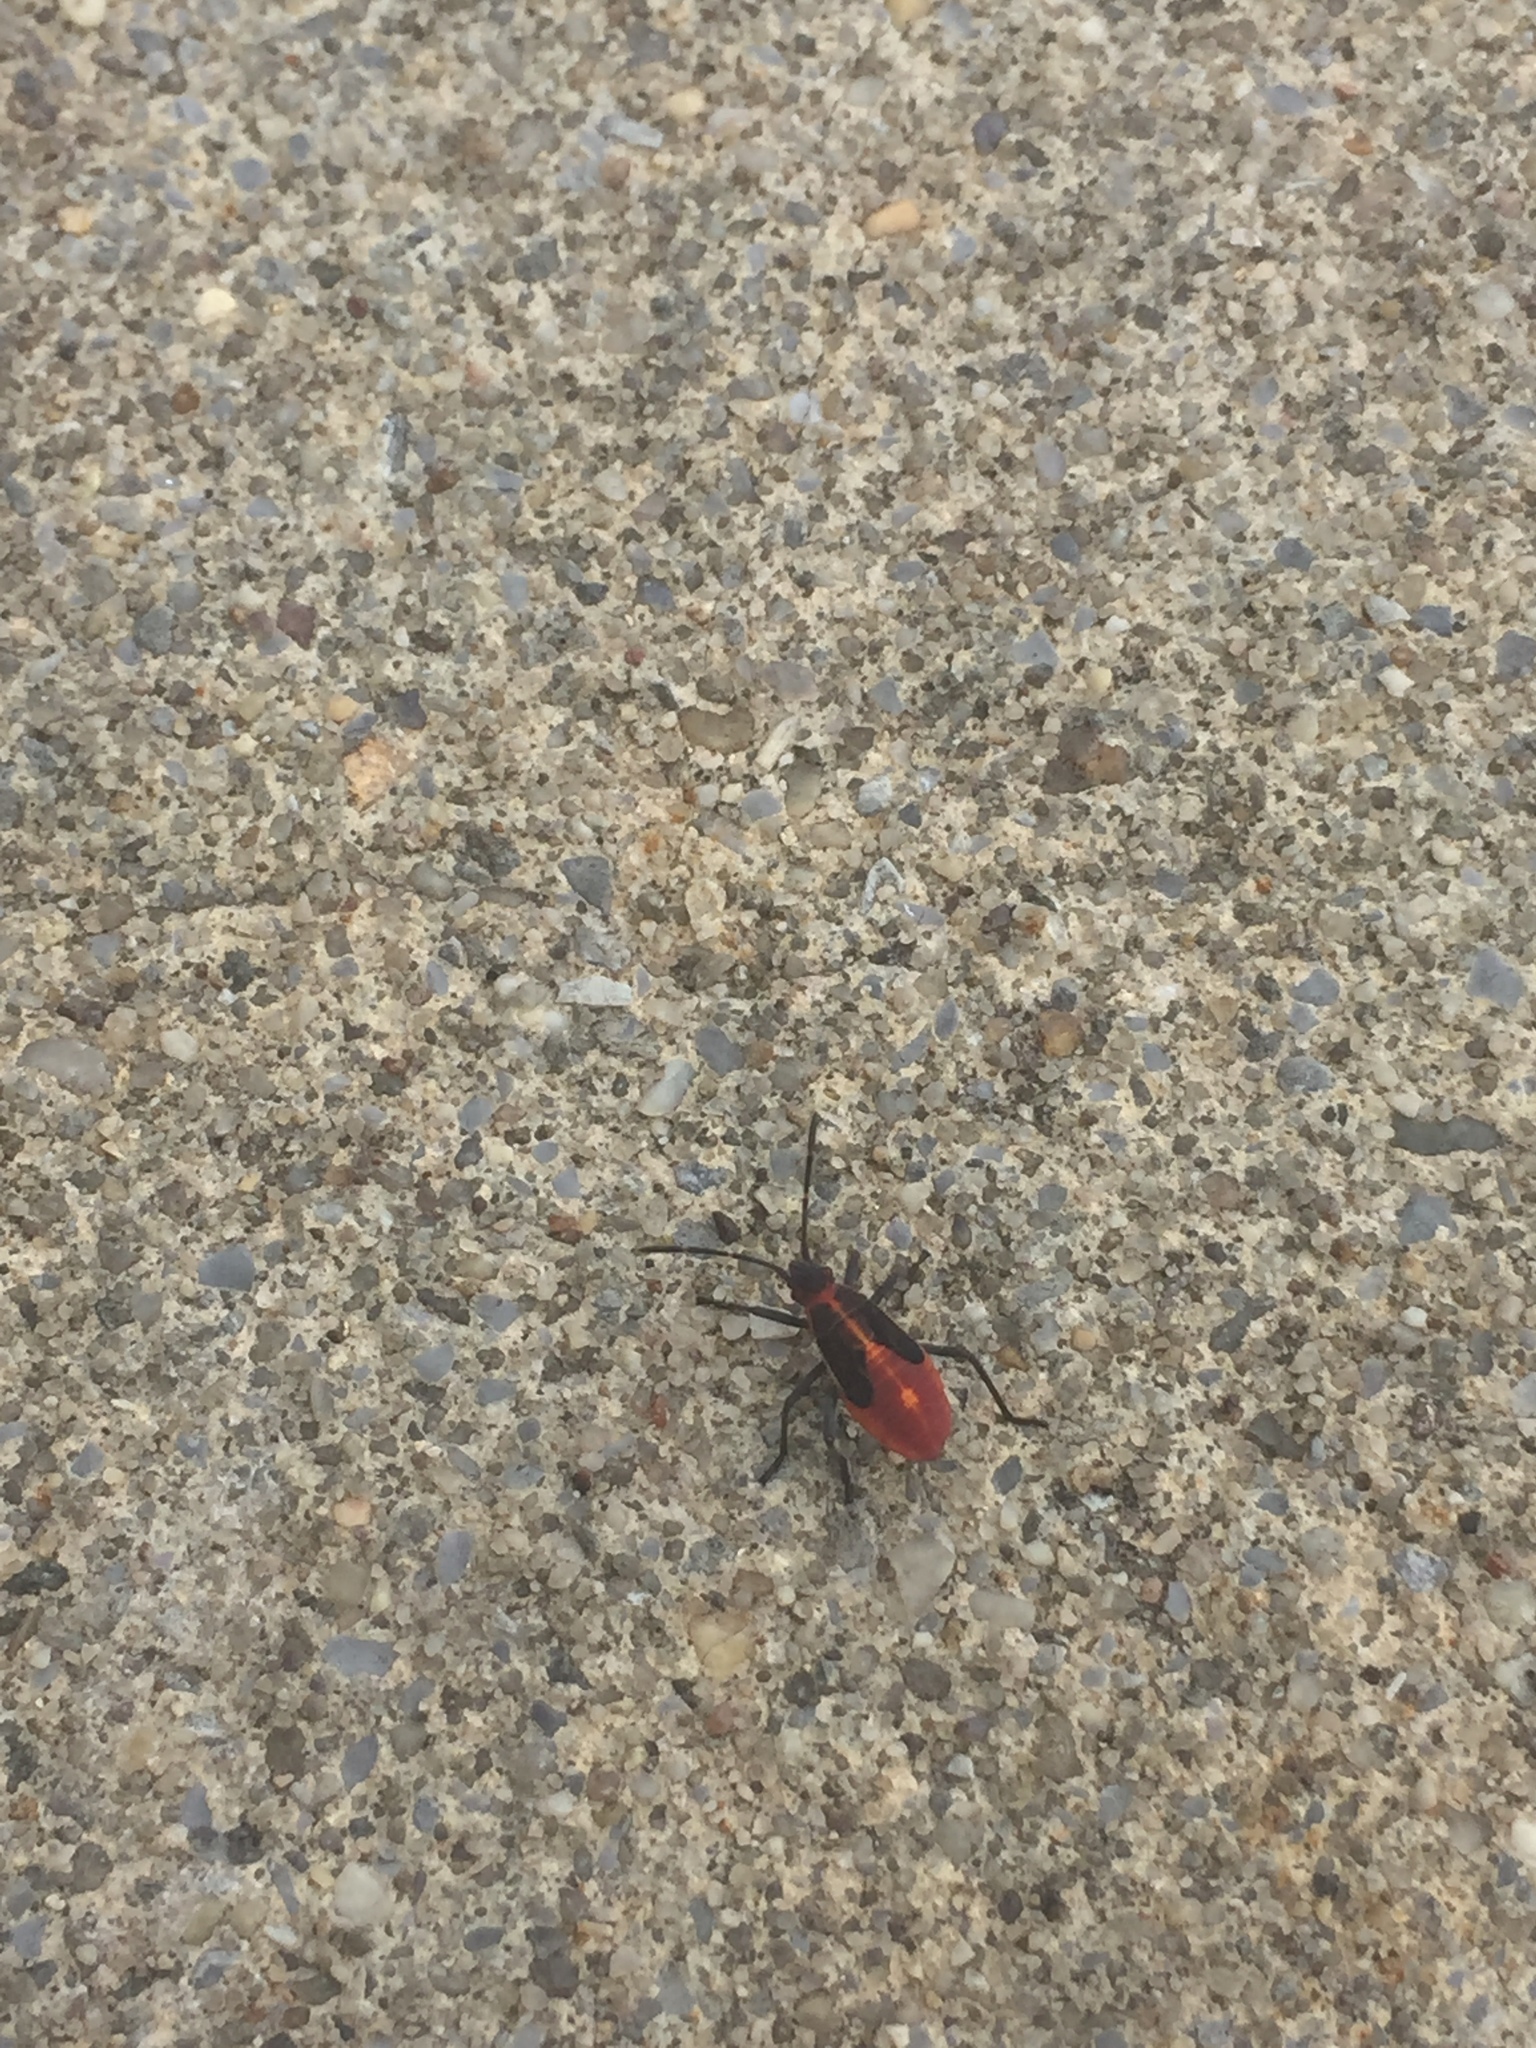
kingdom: Animalia
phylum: Arthropoda
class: Insecta
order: Hemiptera
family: Rhopalidae
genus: Boisea
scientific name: Boisea trivittata
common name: Boxelder bug
